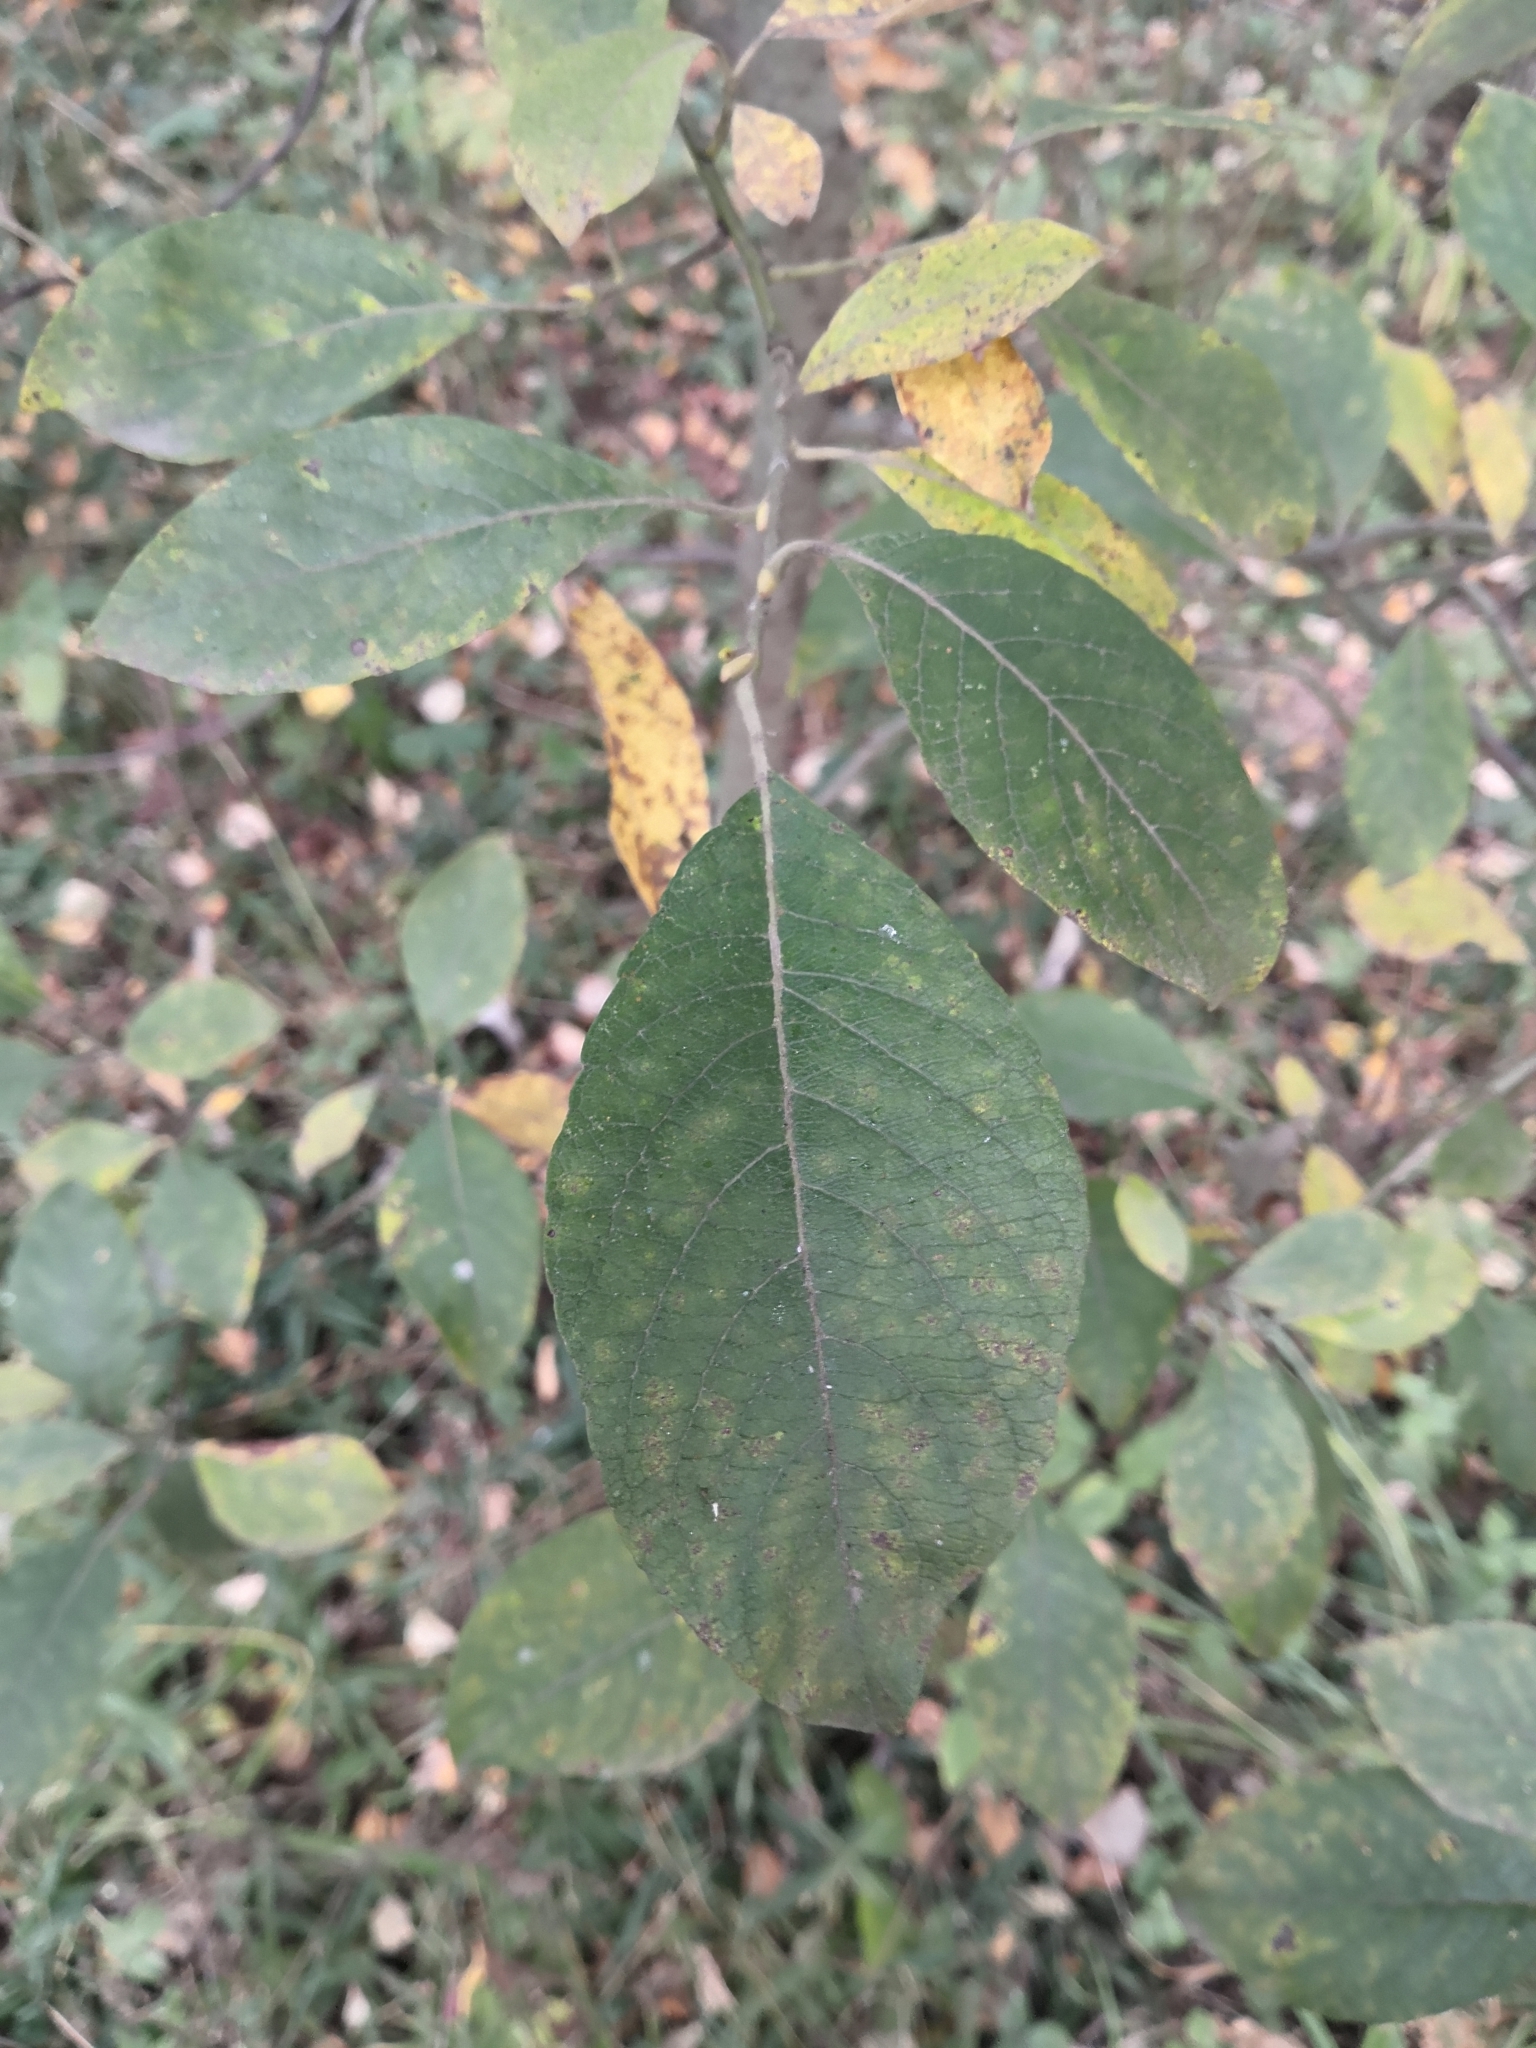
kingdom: Plantae
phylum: Tracheophyta
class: Magnoliopsida
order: Malpighiales
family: Salicaceae
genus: Salix
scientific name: Salix caprea
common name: Goat willow
